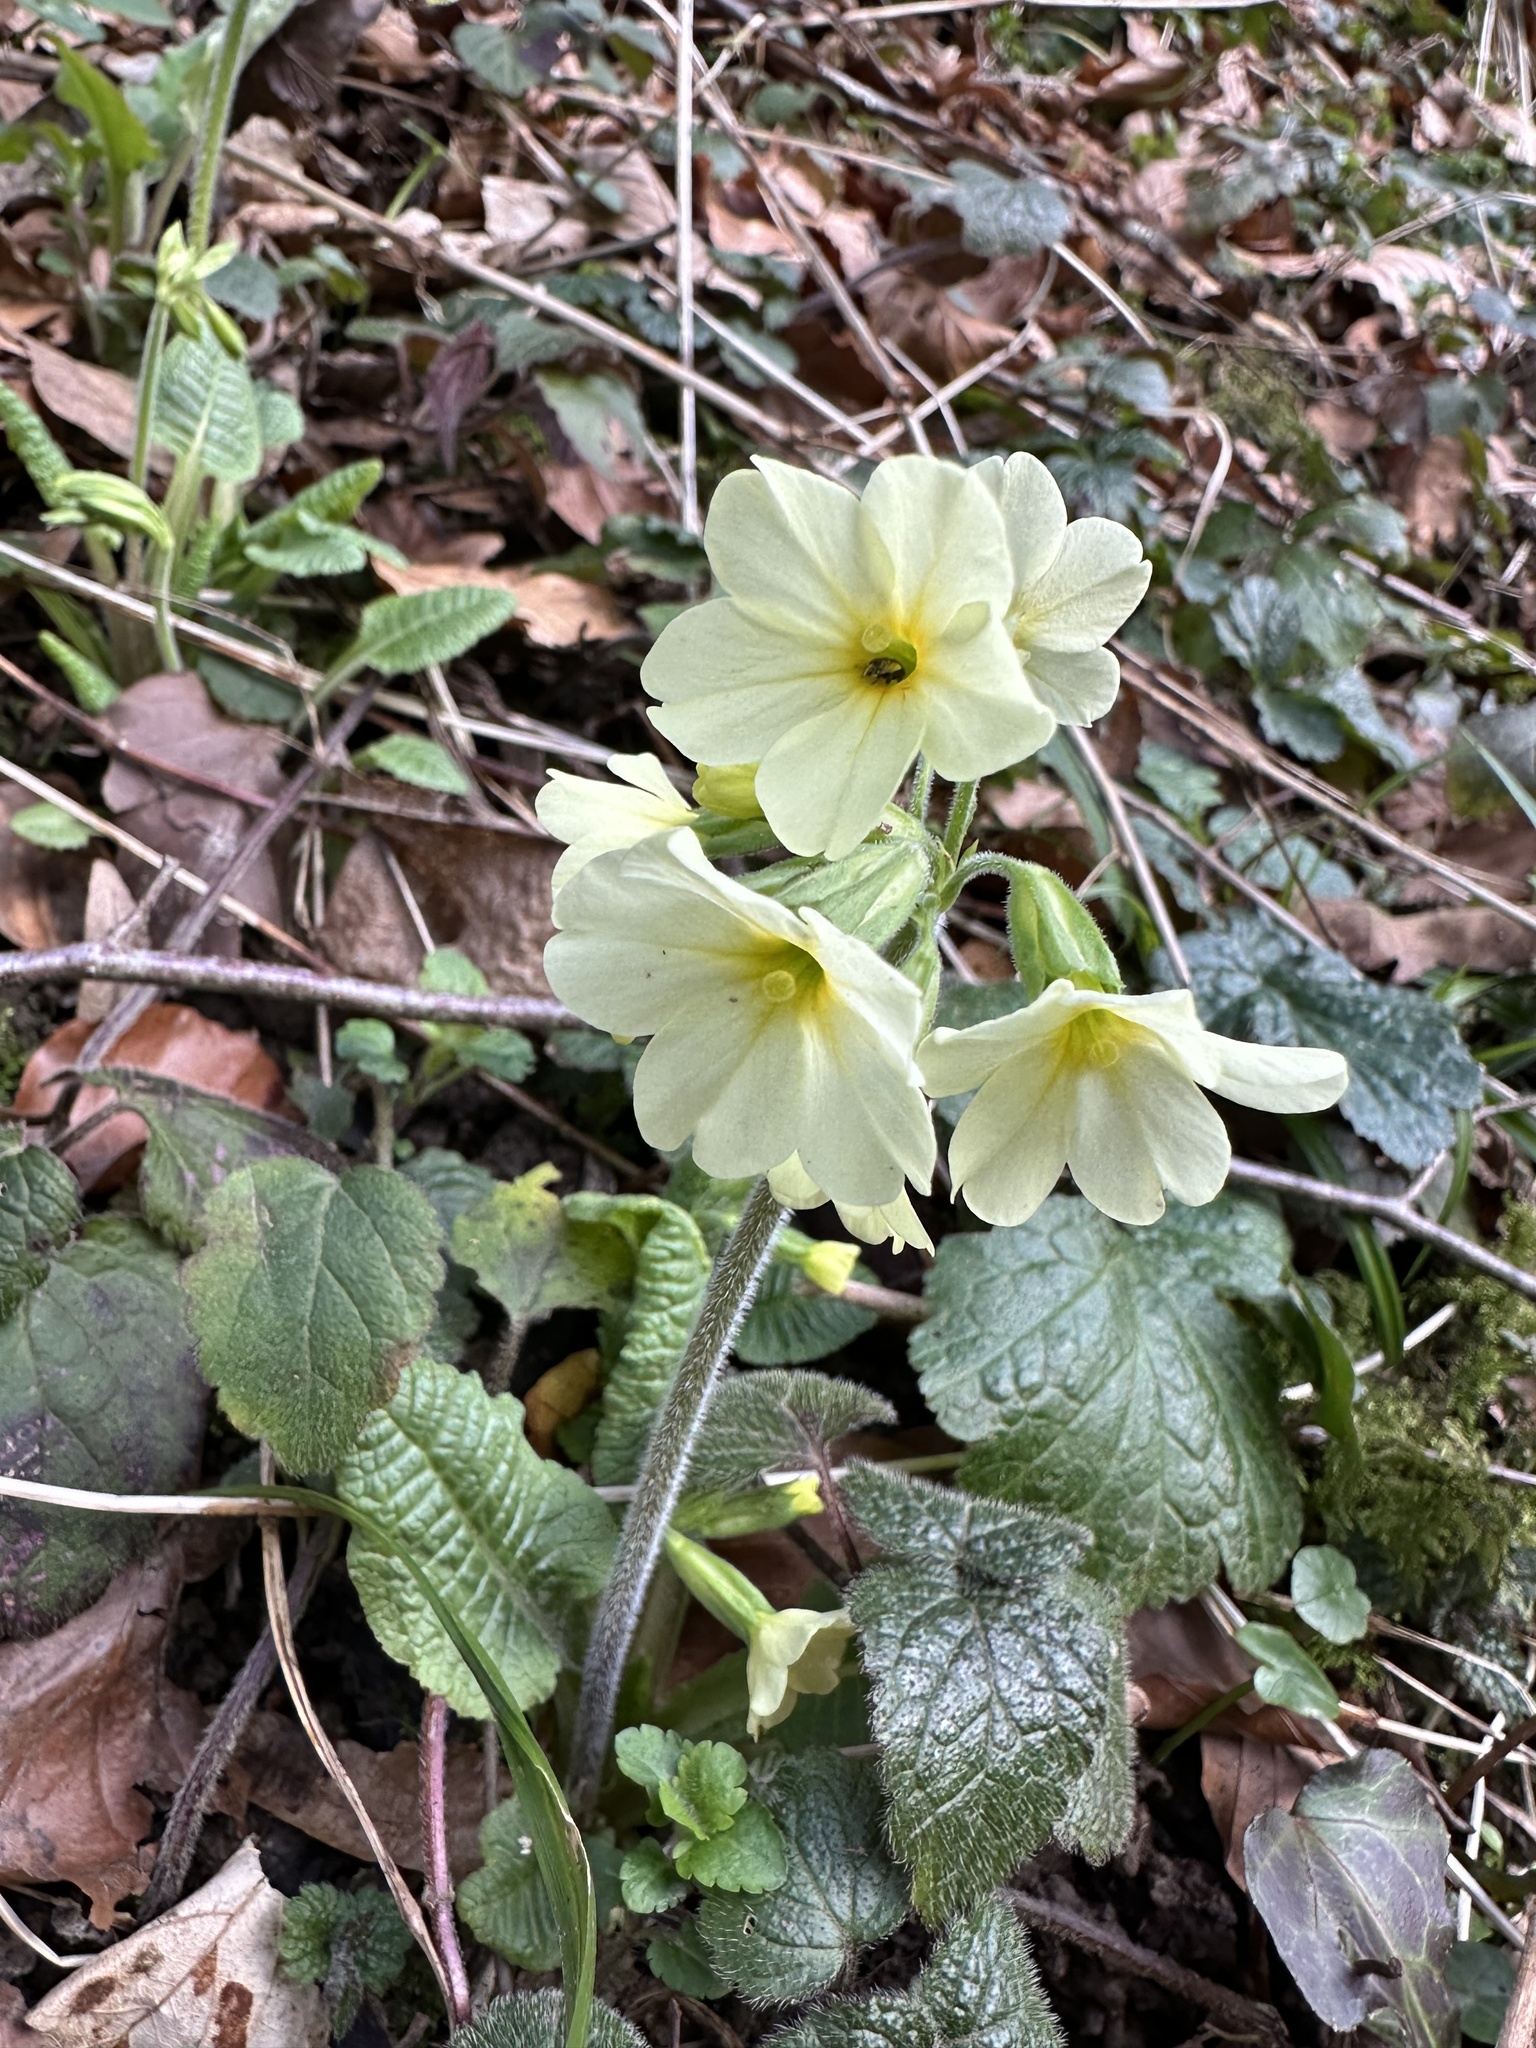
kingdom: Plantae
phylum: Tracheophyta
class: Magnoliopsida
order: Ericales
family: Primulaceae
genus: Primula
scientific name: Primula elatior
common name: Oxlip
